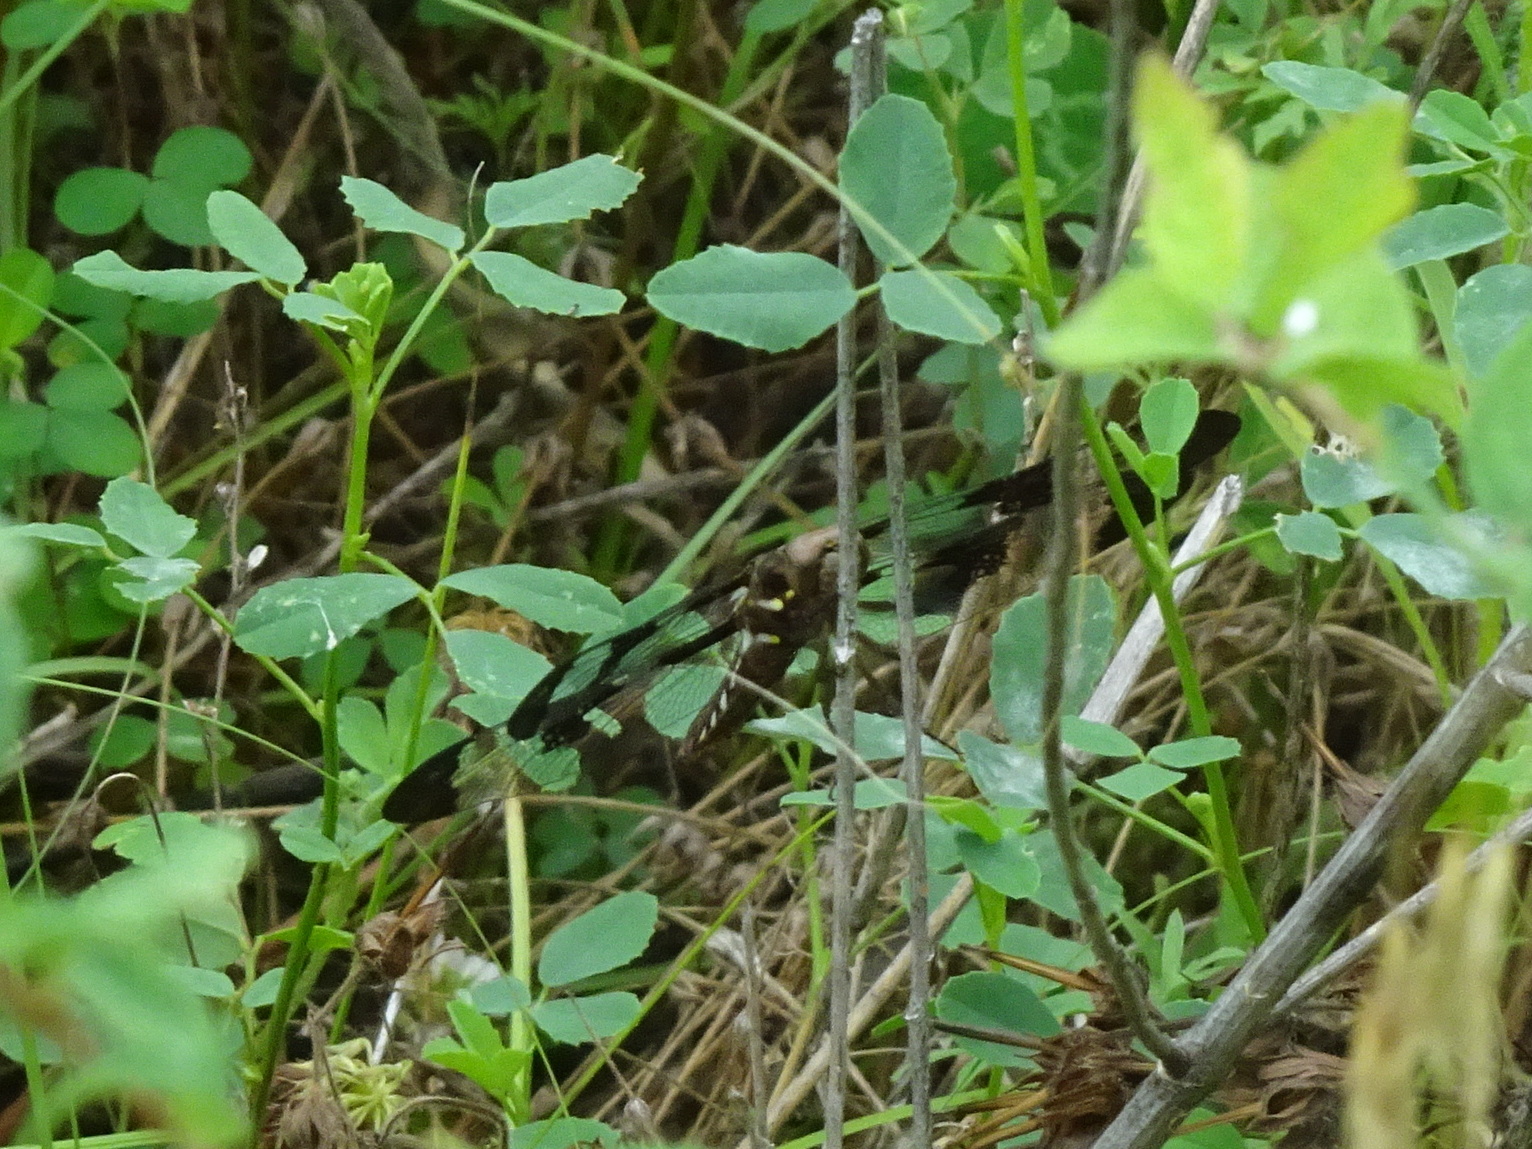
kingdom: Animalia
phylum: Arthropoda
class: Insecta
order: Odonata
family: Libellulidae
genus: Plathemis
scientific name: Plathemis lydia
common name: Common whitetail
